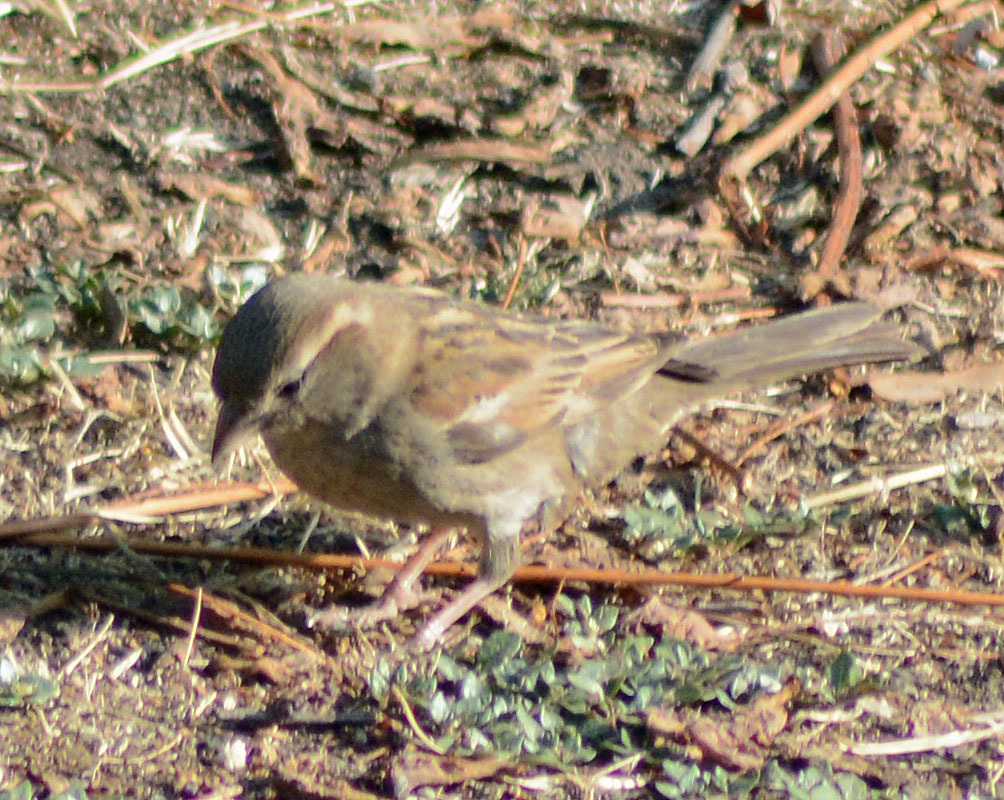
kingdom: Animalia
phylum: Chordata
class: Aves
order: Passeriformes
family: Passeridae
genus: Passer
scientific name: Passer domesticus
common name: House sparrow
